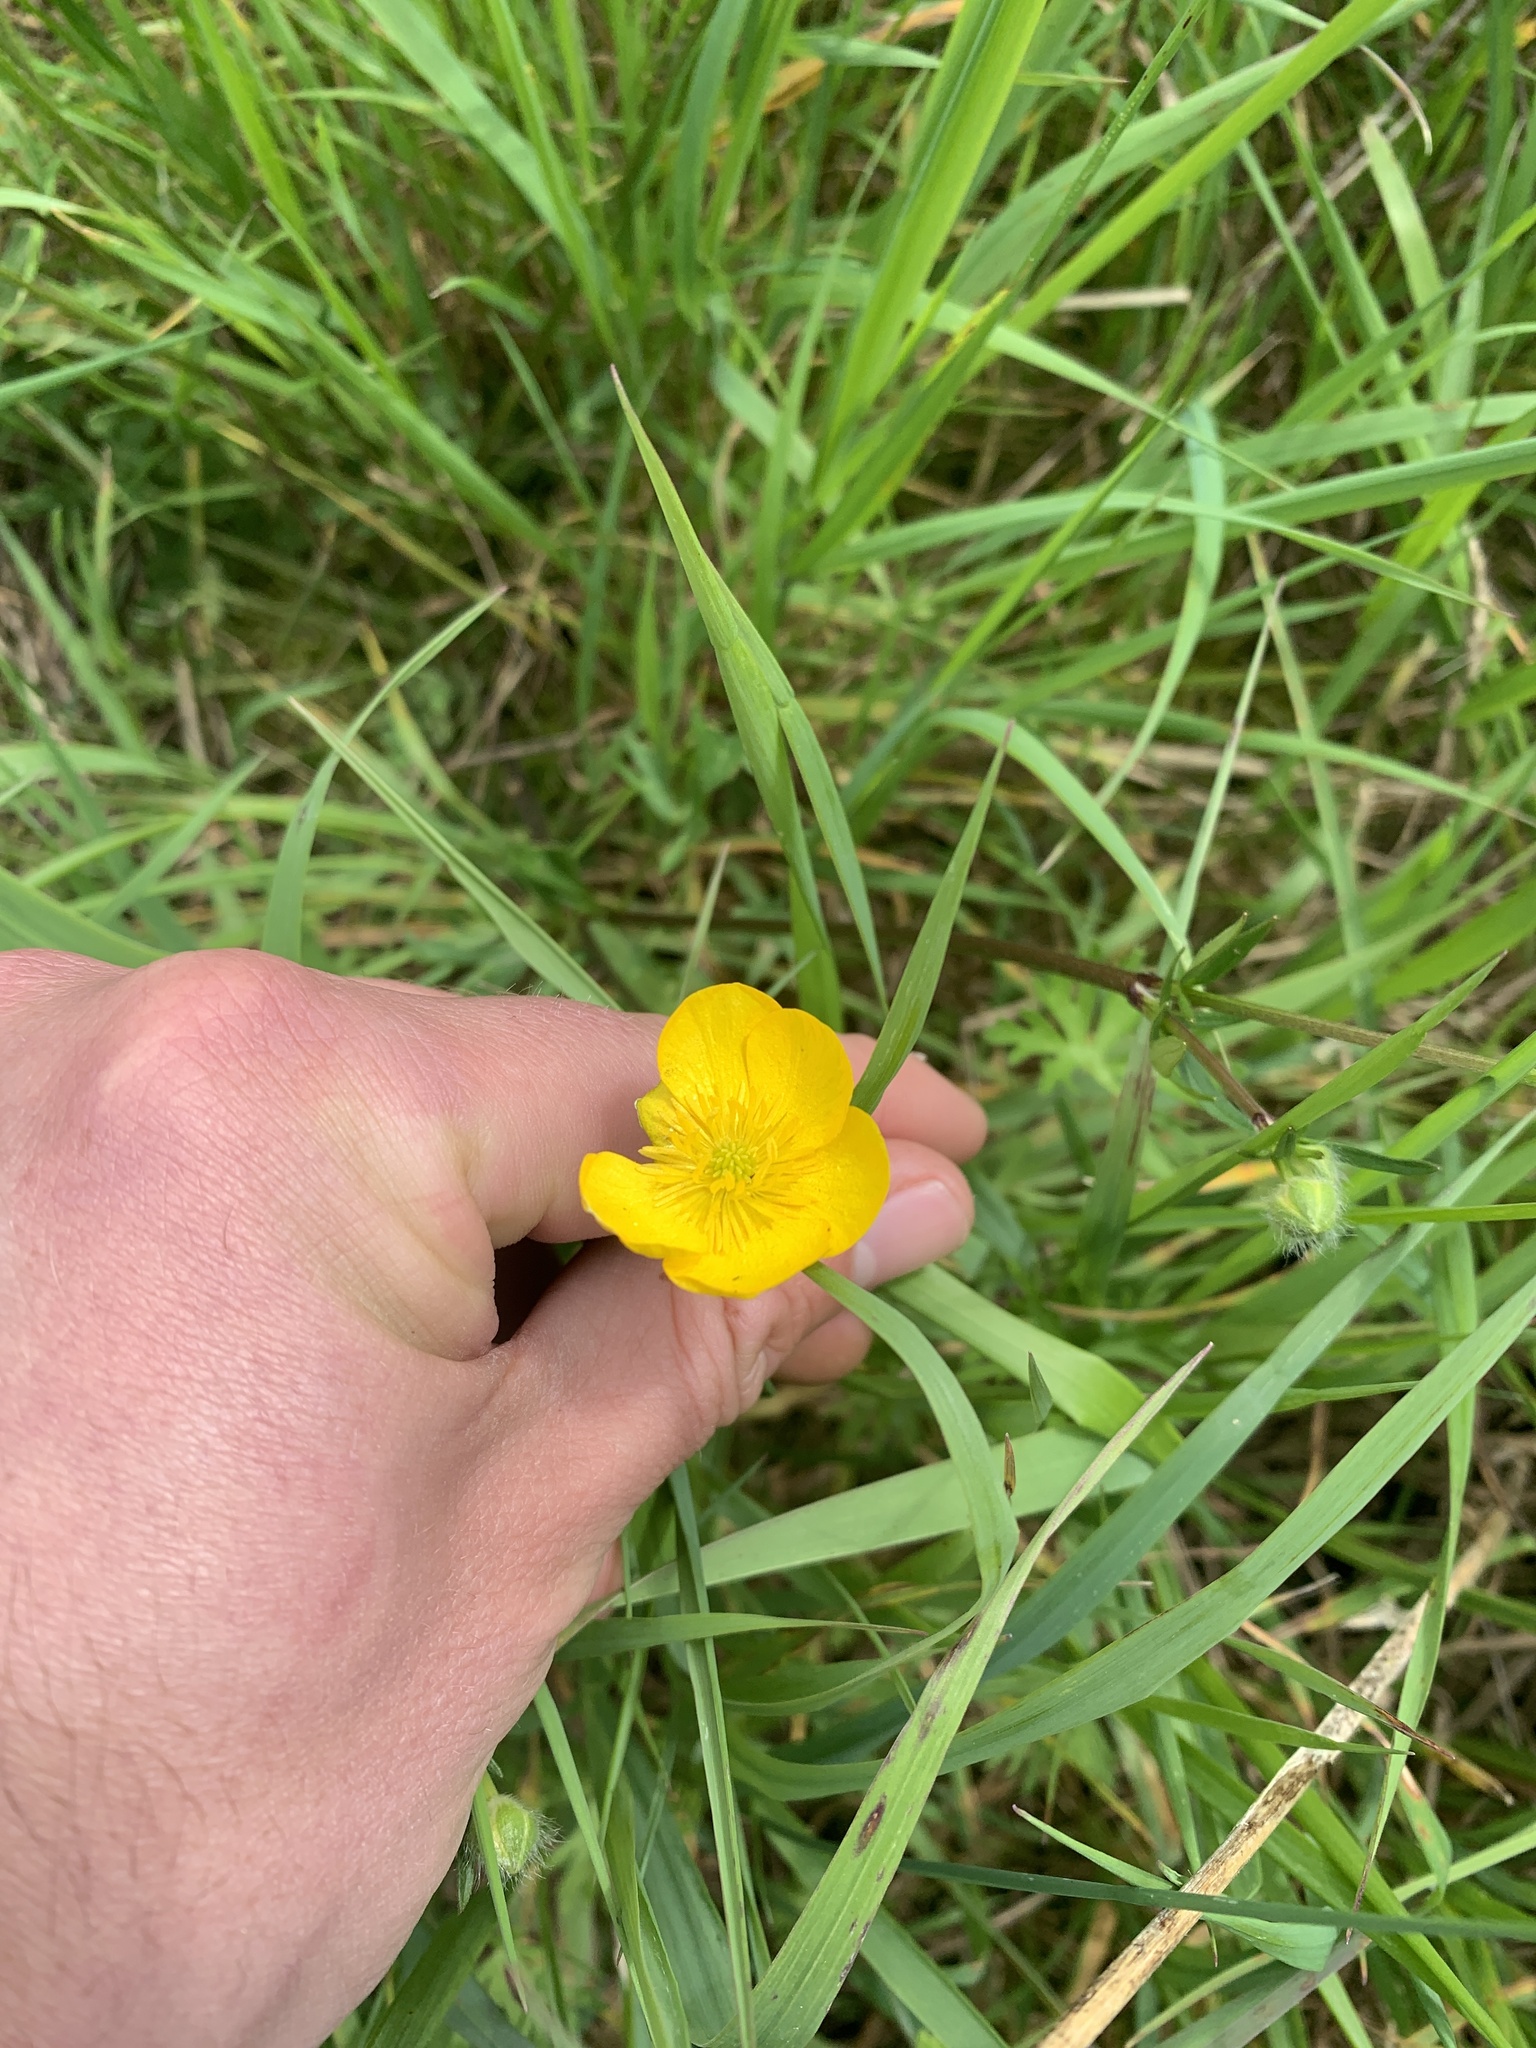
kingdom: Plantae
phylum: Tracheophyta
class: Magnoliopsida
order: Ranunculales
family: Ranunculaceae
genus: Ranunculus
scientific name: Ranunculus acris
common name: Meadow buttercup
